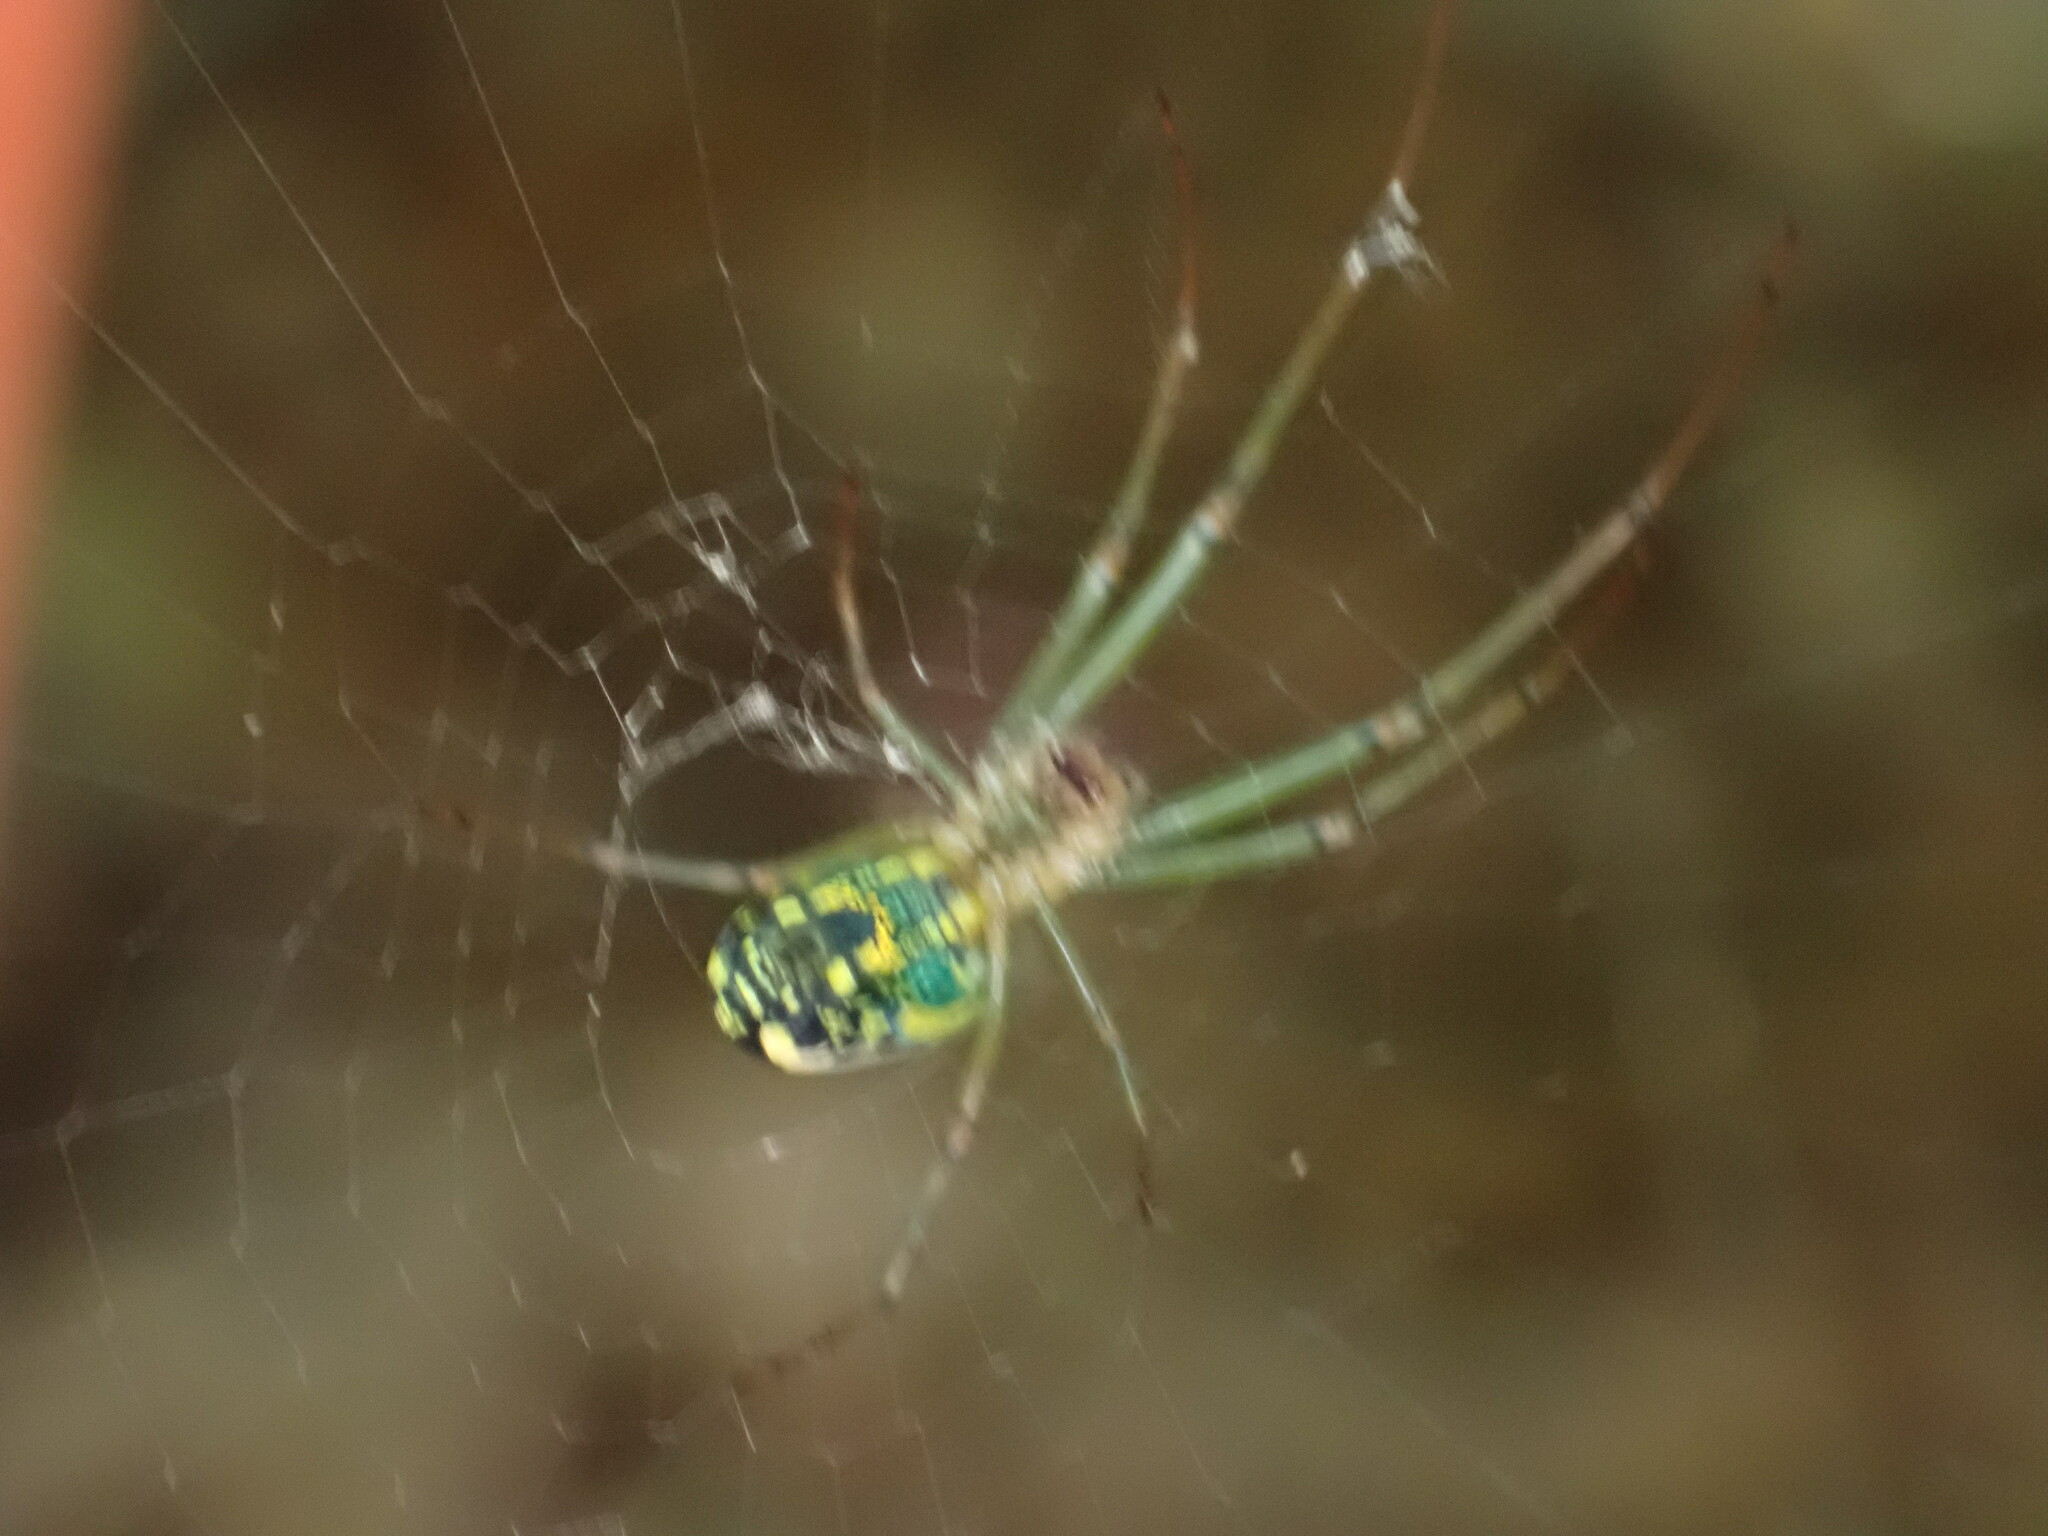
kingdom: Animalia
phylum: Arthropoda
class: Arachnida
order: Araneae
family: Tetragnathidae
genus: Leucauge
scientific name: Leucauge venusta
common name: Longjawed orb weavers
